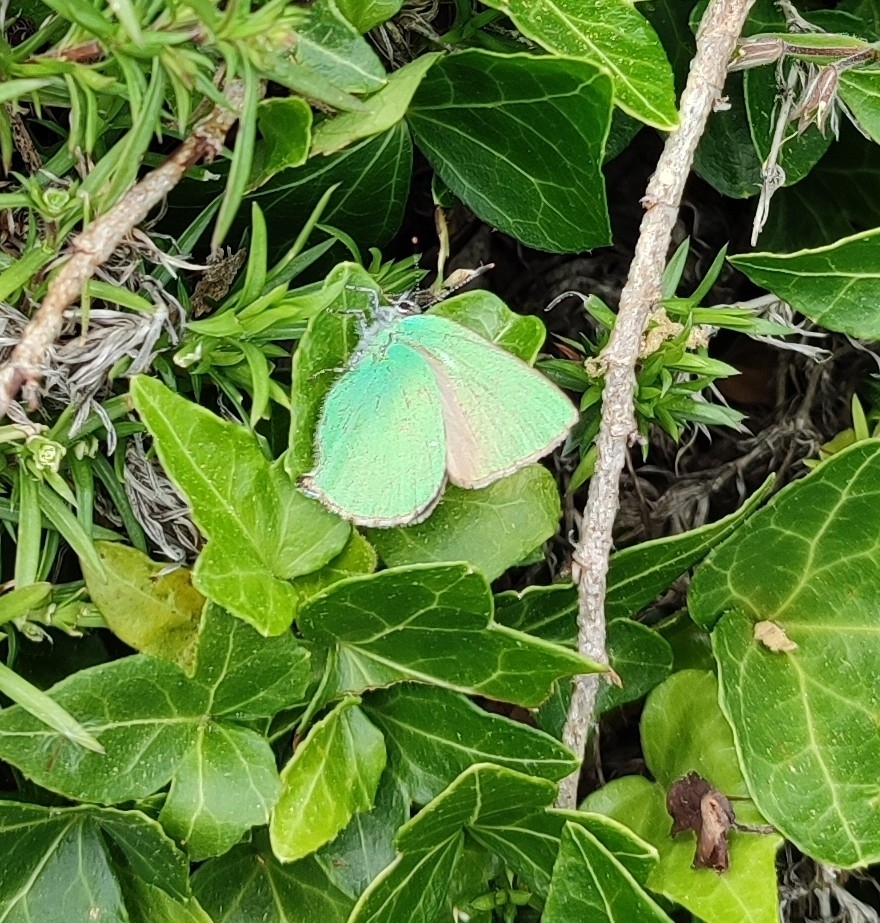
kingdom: Animalia
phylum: Arthropoda
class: Insecta
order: Lepidoptera
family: Lycaenidae
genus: Callophrys
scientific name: Callophrys rubi
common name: Green hairstreak
